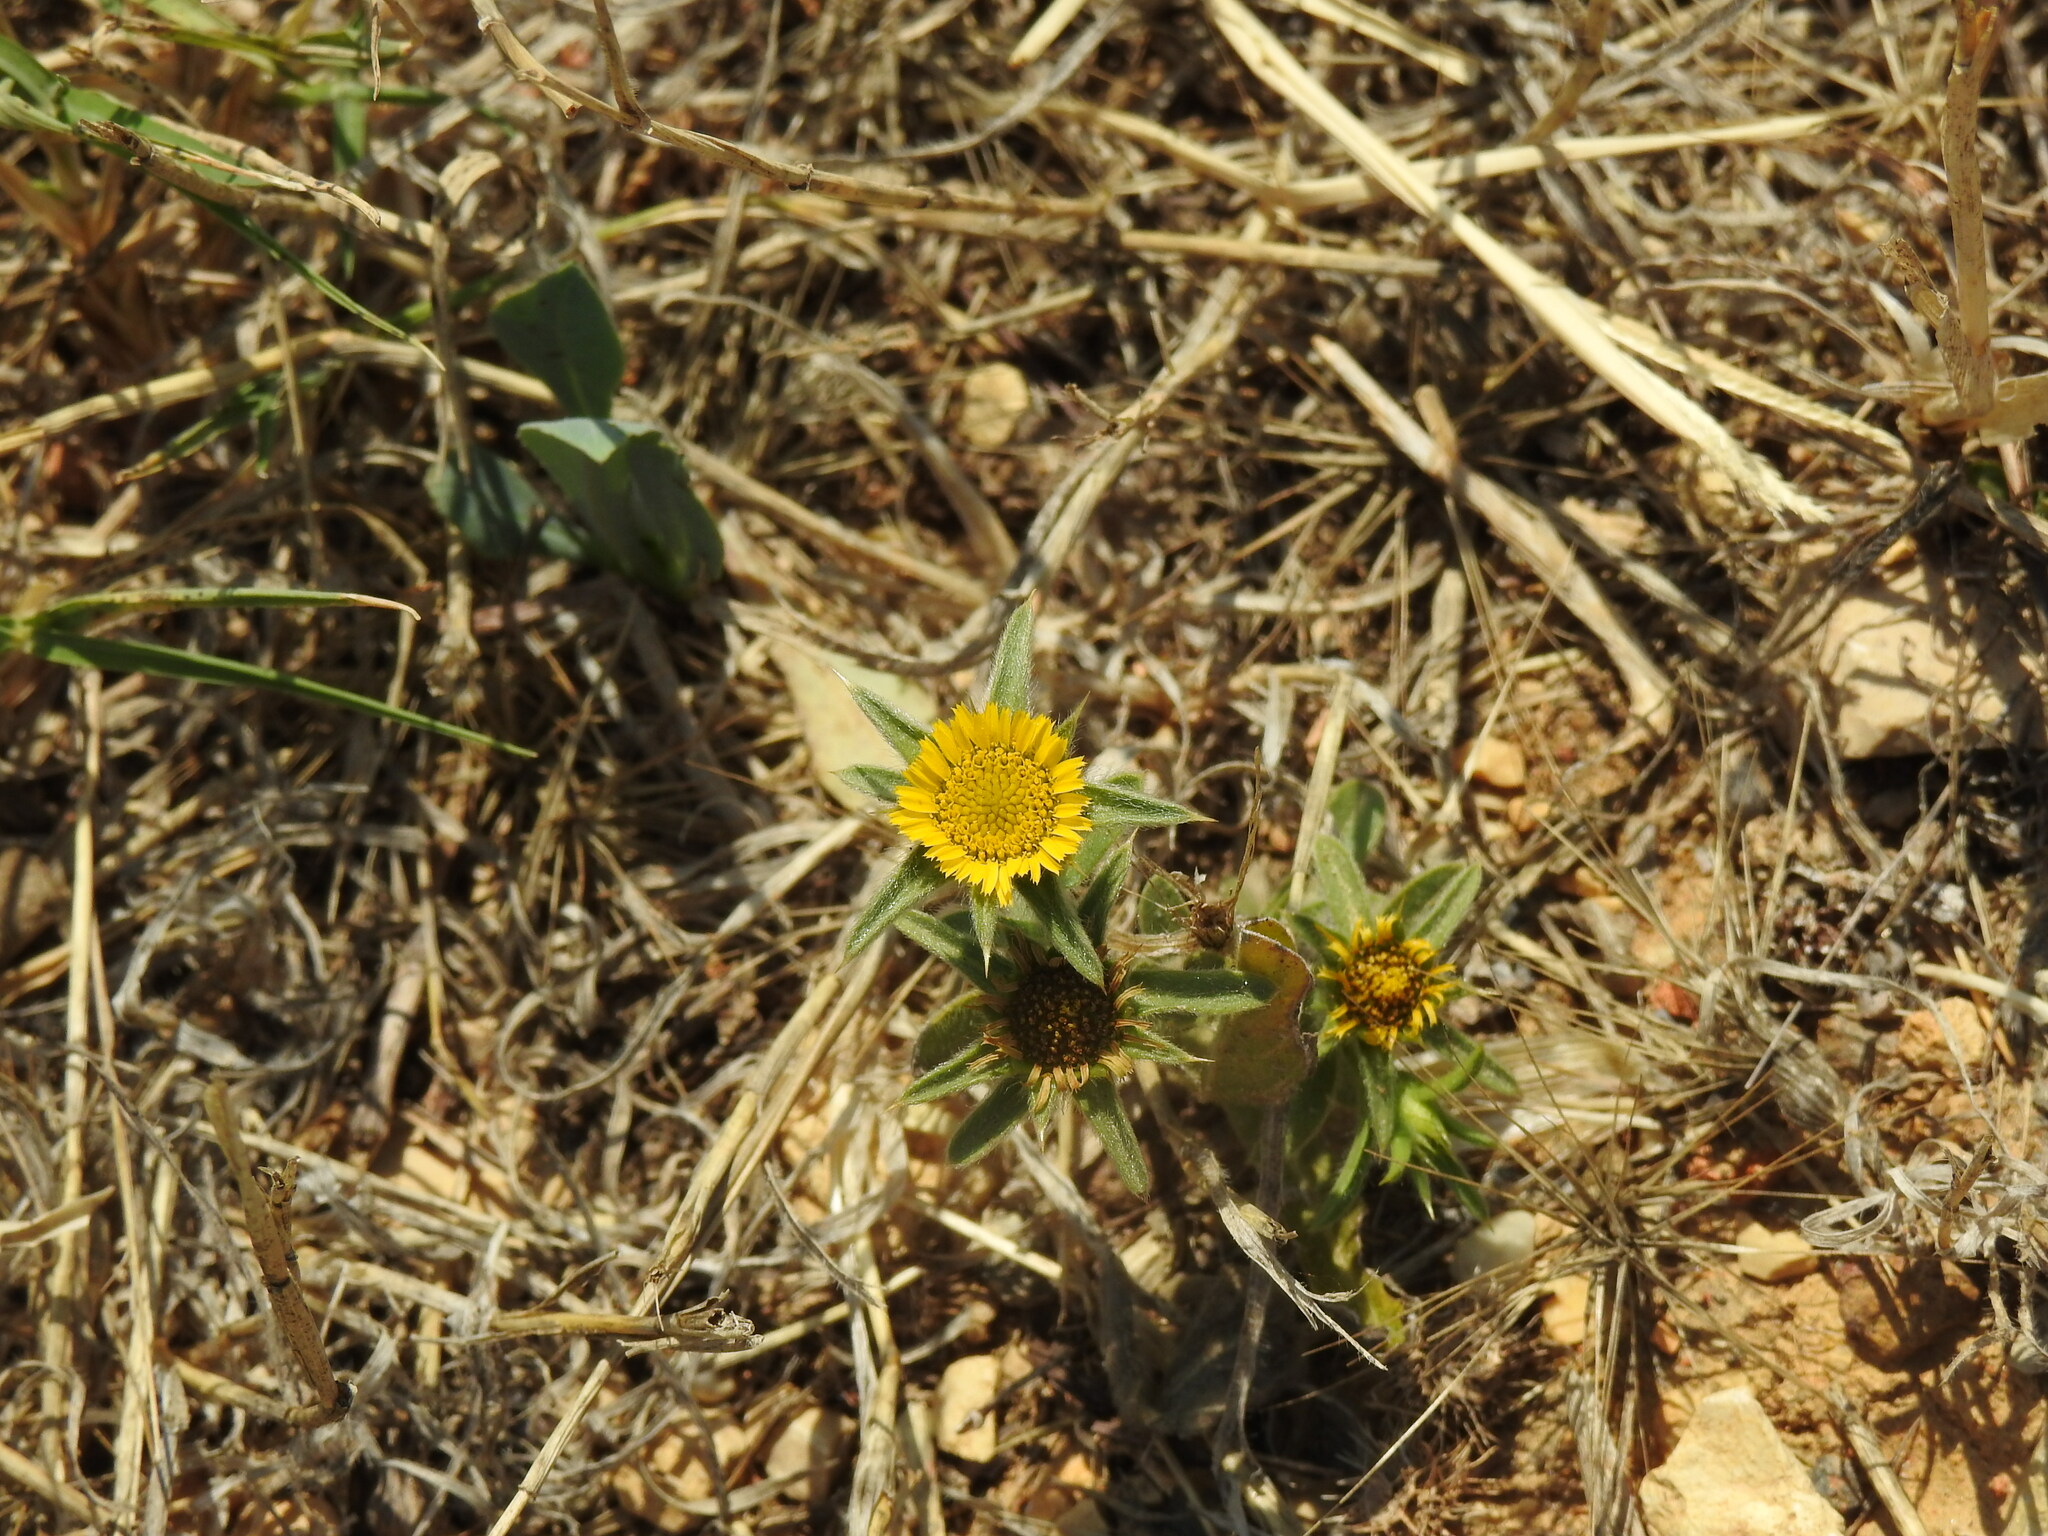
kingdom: Plantae
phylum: Tracheophyta
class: Magnoliopsida
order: Asterales
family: Asteraceae
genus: Pallenis
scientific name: Pallenis spinosa
